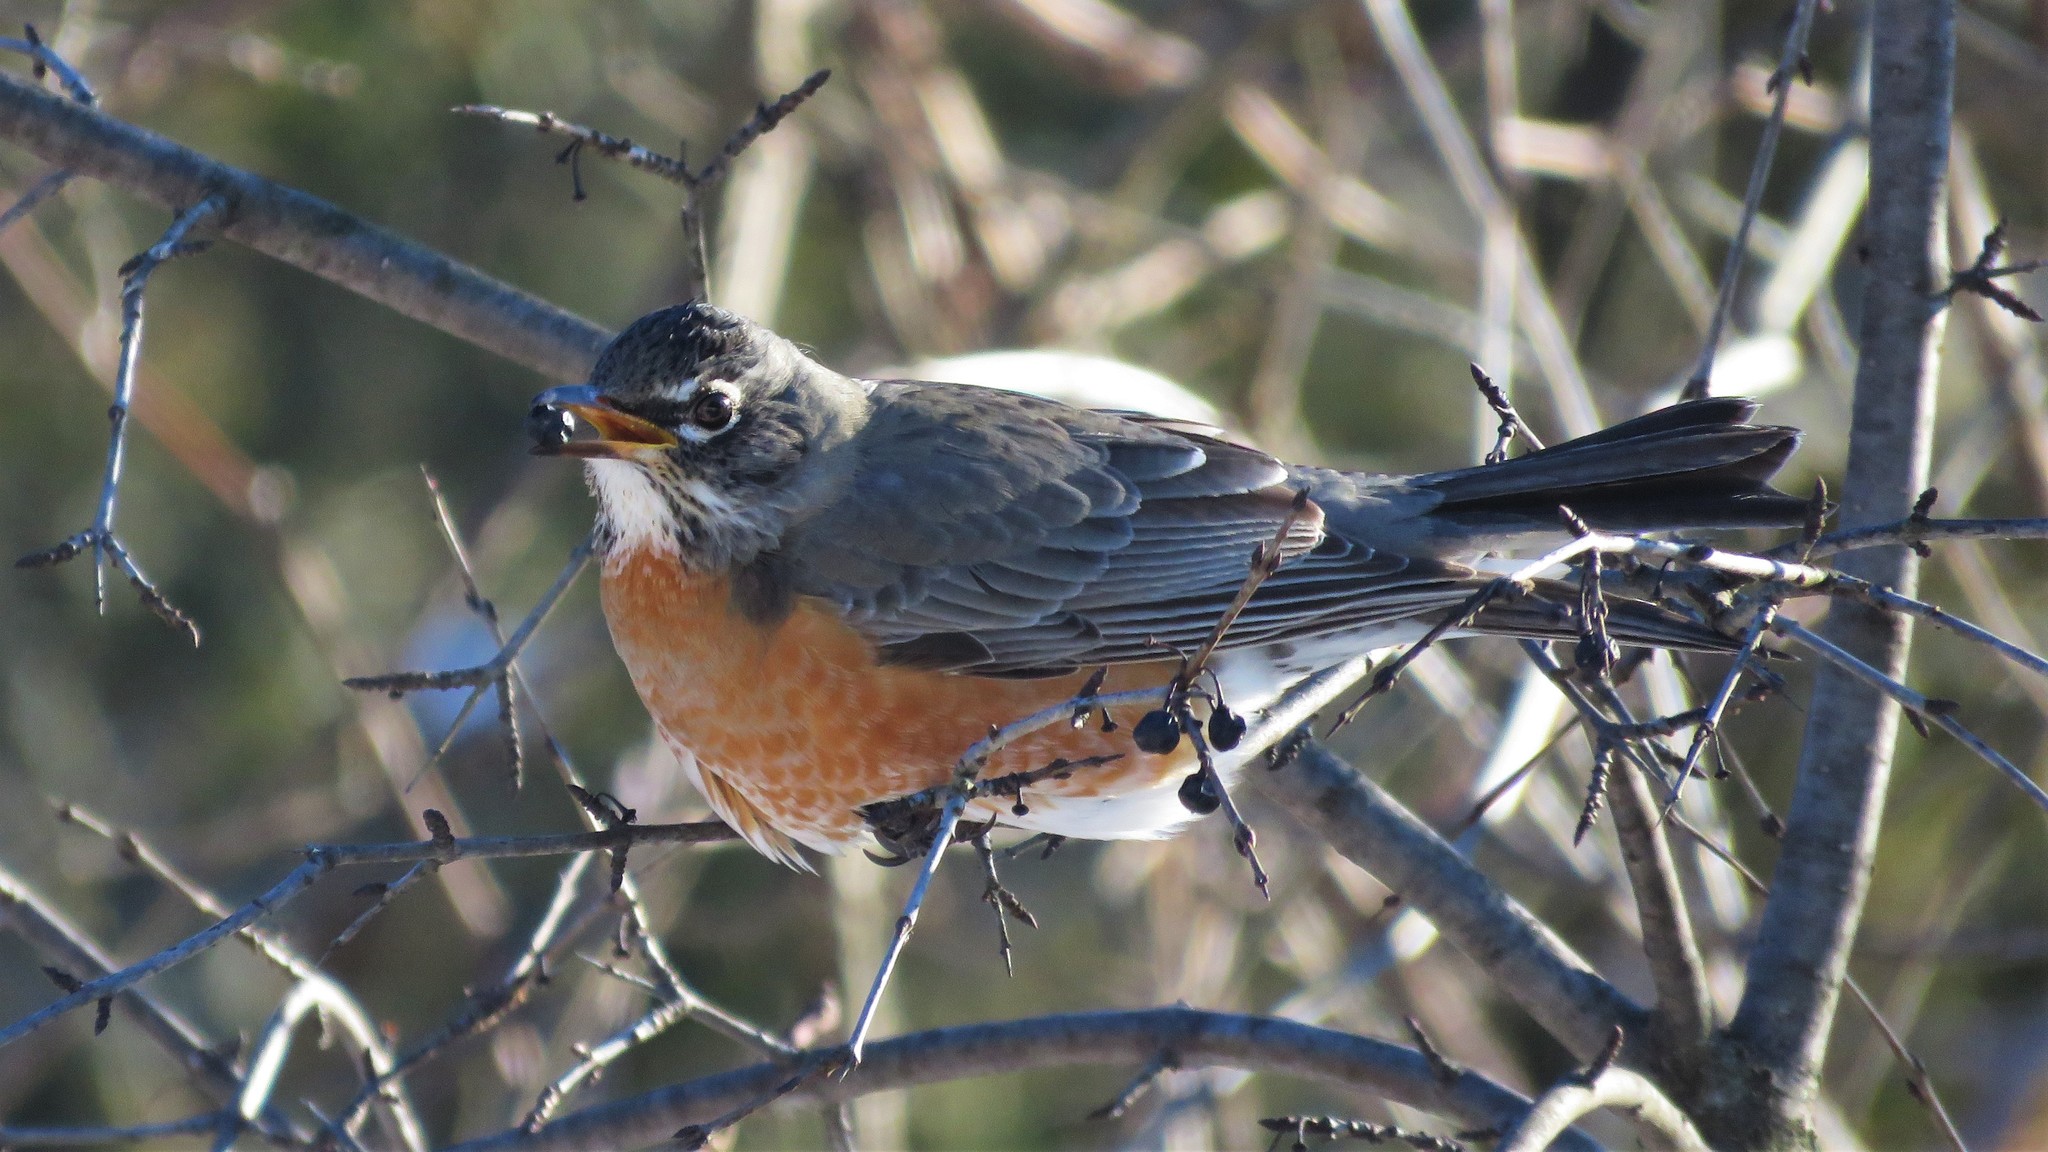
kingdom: Animalia
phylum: Chordata
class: Aves
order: Passeriformes
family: Turdidae
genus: Turdus
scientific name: Turdus migratorius
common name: American robin
